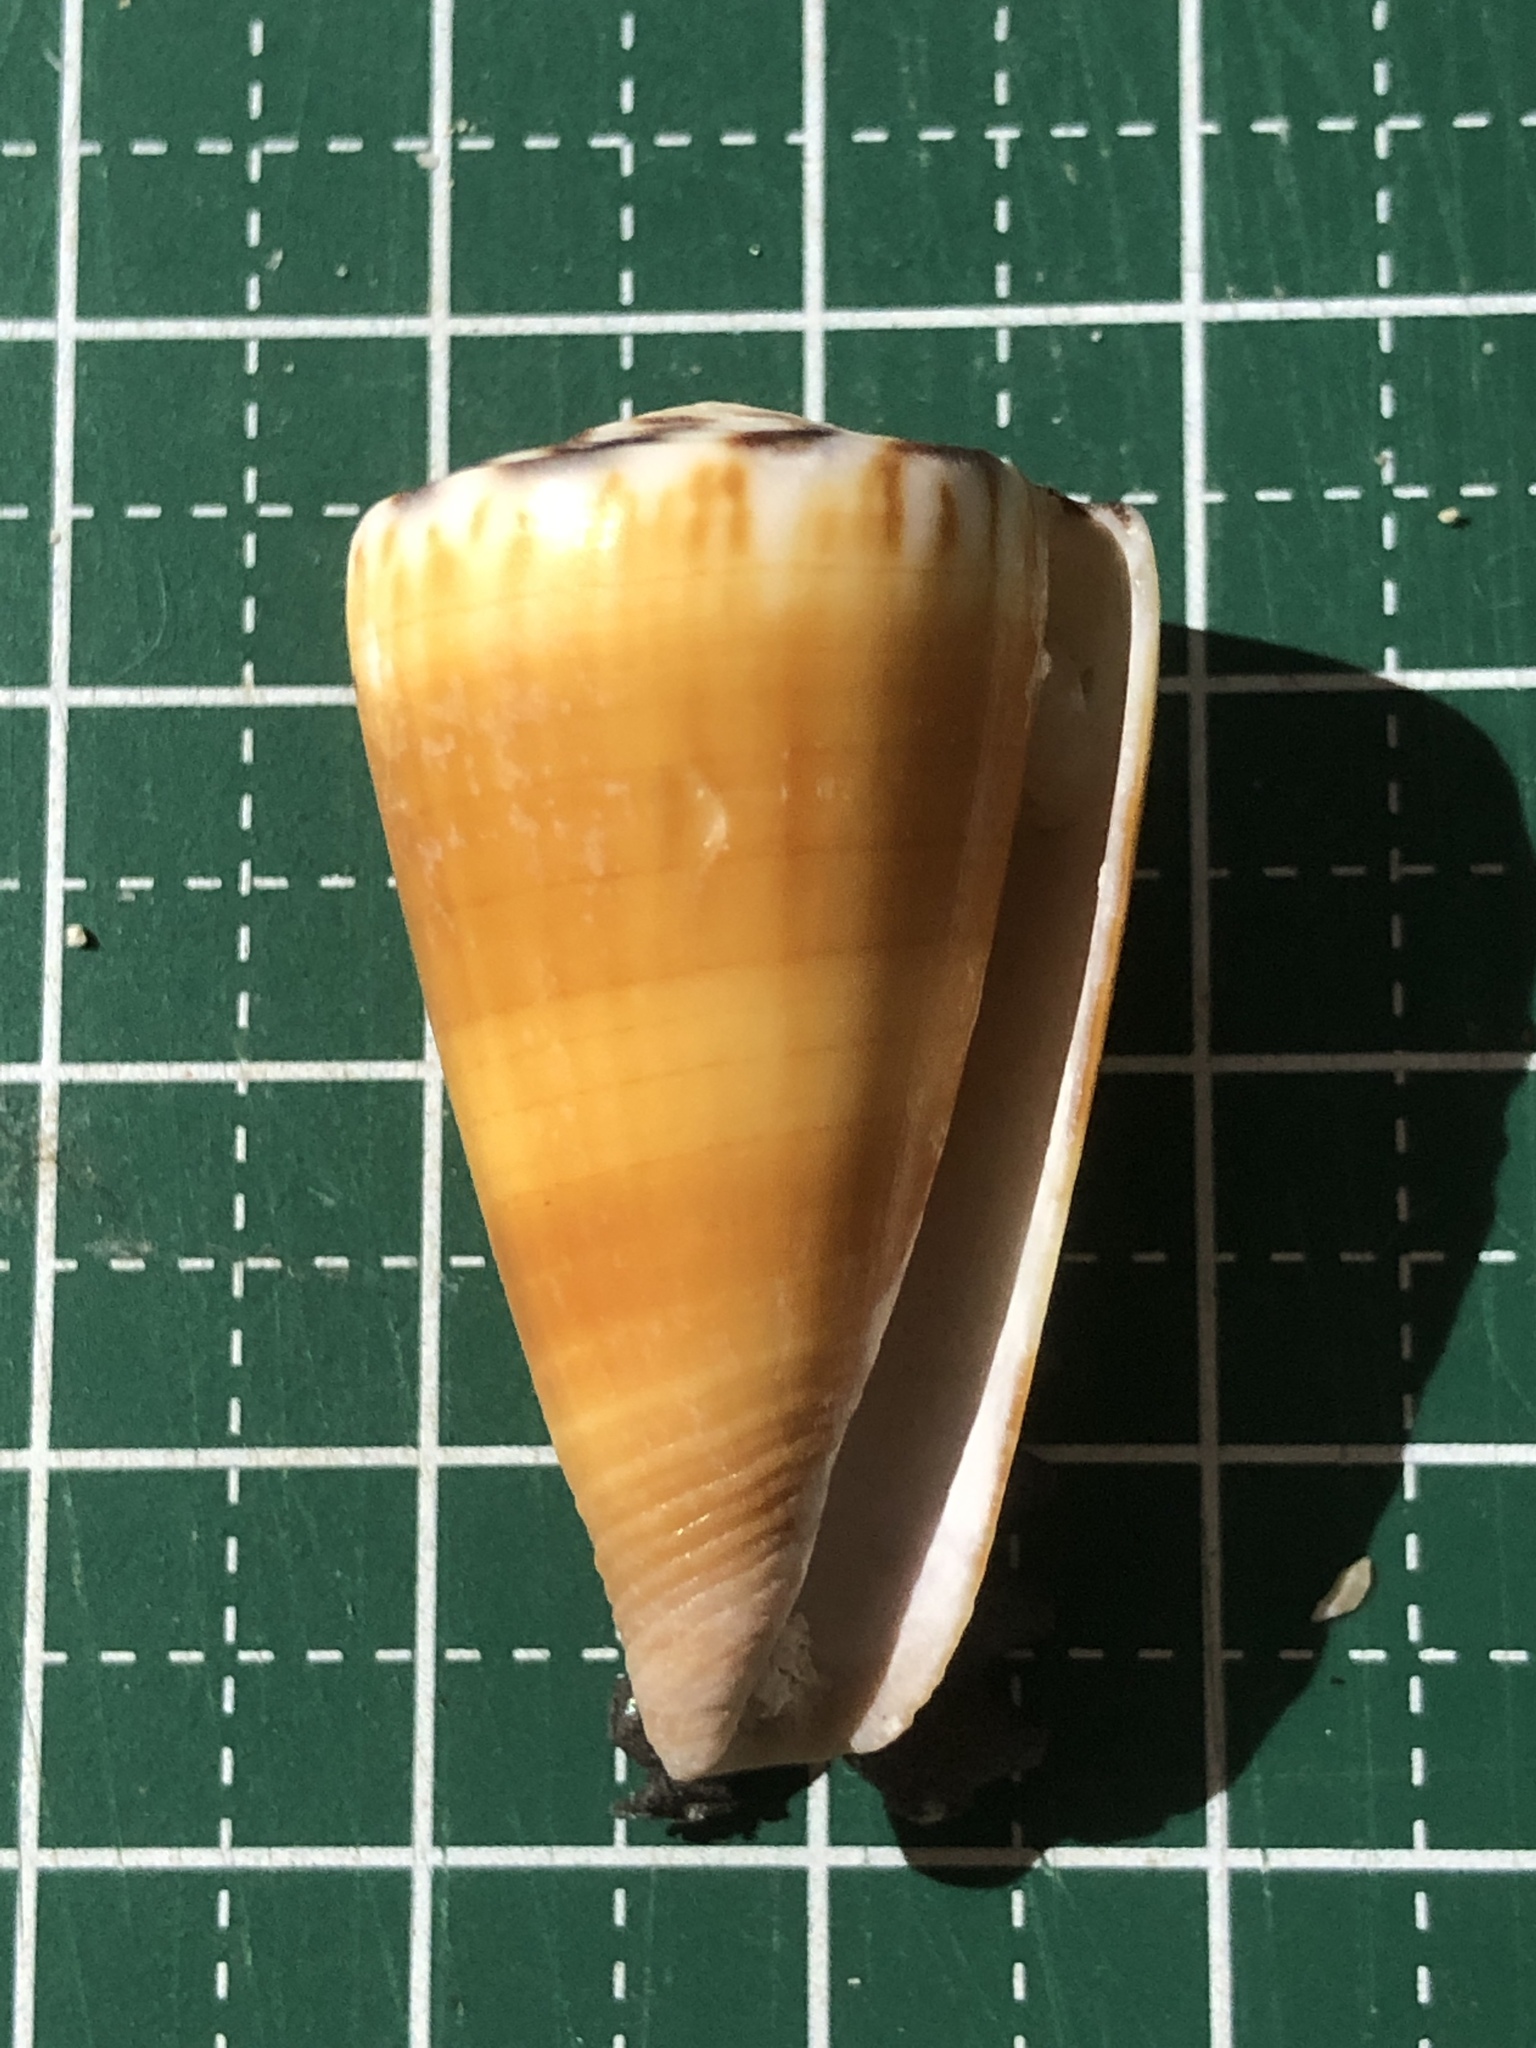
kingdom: Animalia
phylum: Mollusca
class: Gastropoda
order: Neogastropoda
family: Conidae
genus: Conus
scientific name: Conus planorbis
